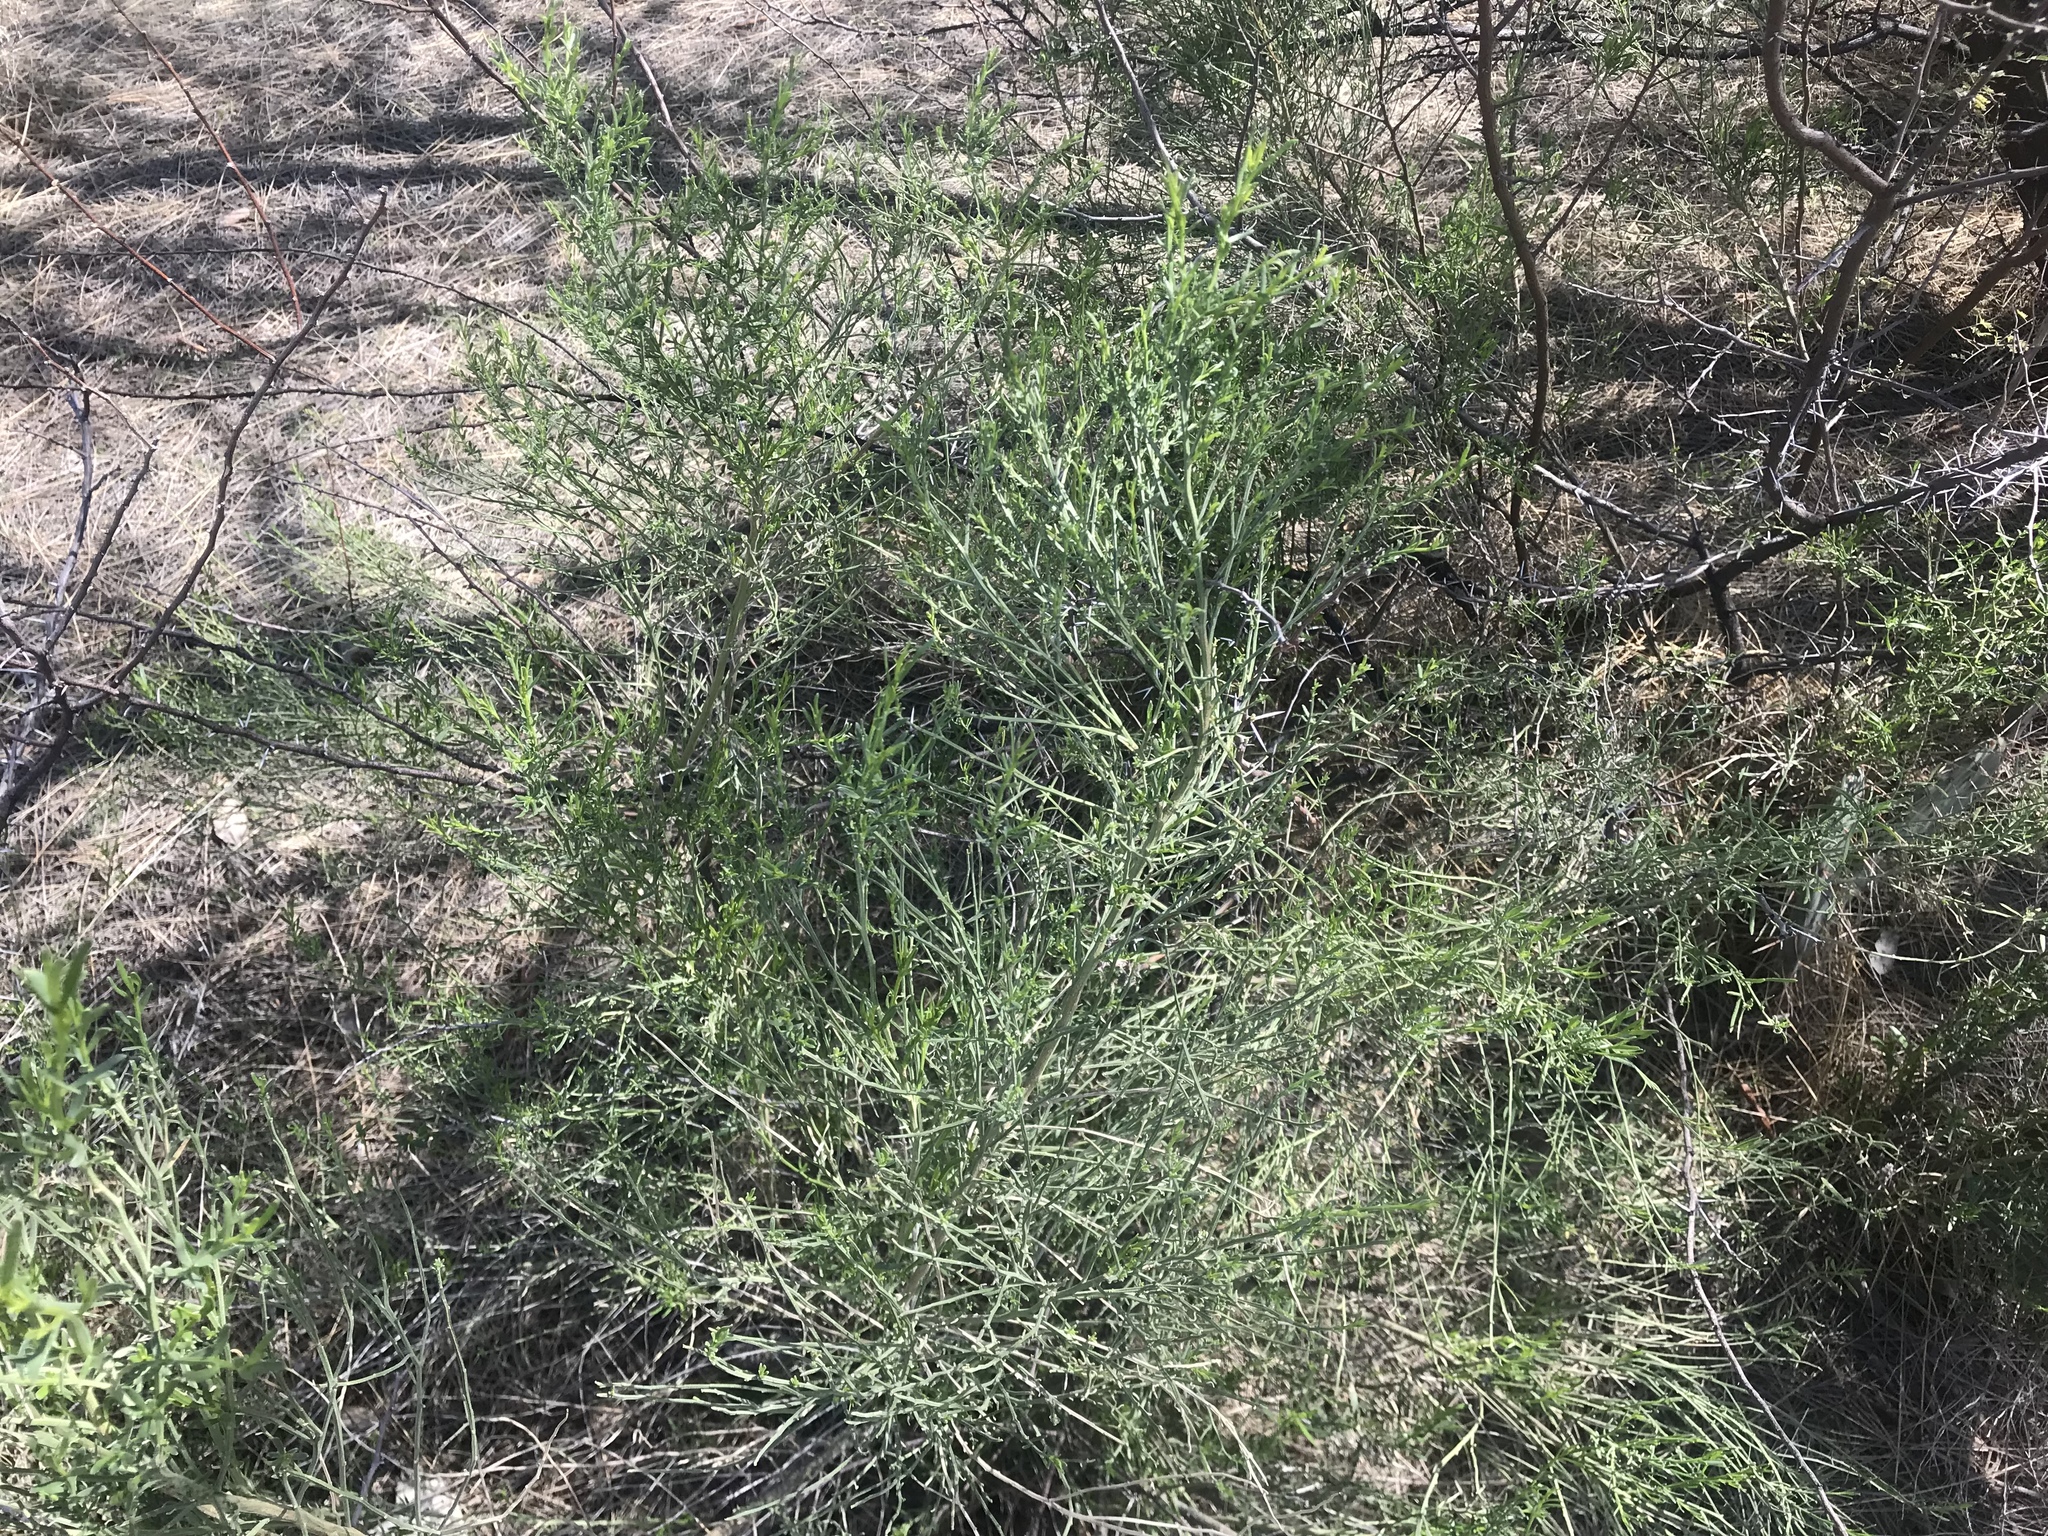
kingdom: Plantae
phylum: Tracheophyta
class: Magnoliopsida
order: Asterales
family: Asteraceae
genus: Baccharis
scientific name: Baccharis sarothroides
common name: Desert-broom
